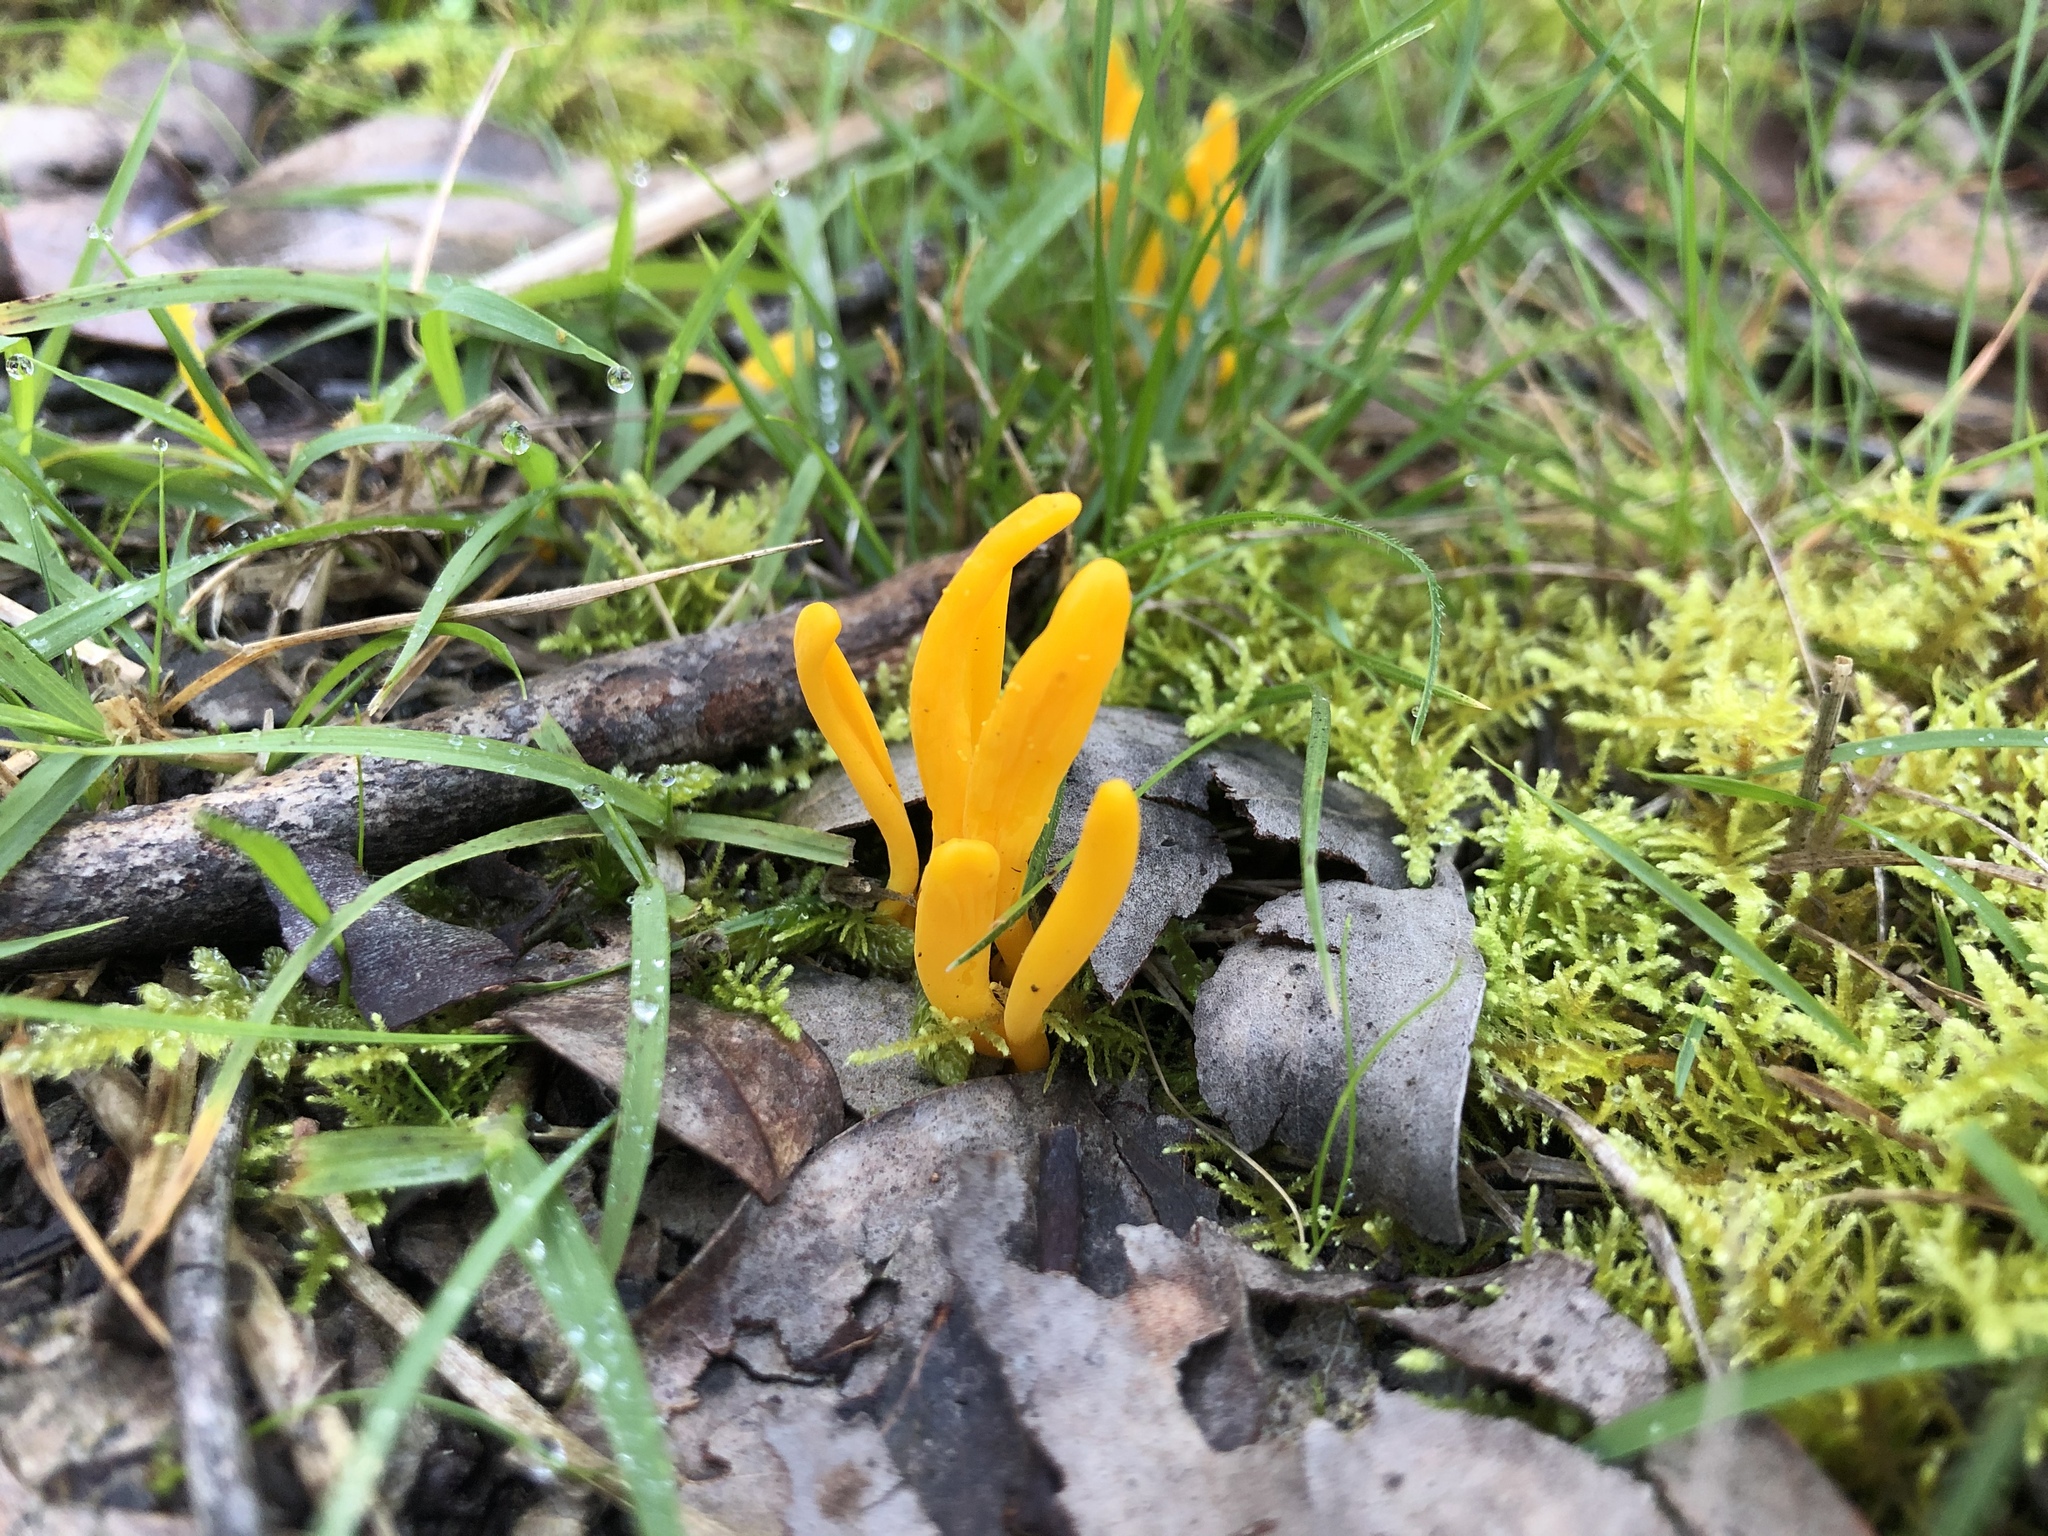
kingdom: Fungi
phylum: Basidiomycota
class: Agaricomycetes
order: Agaricales
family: Clavariaceae
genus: Clavulinopsis
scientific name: Clavulinopsis amoena
